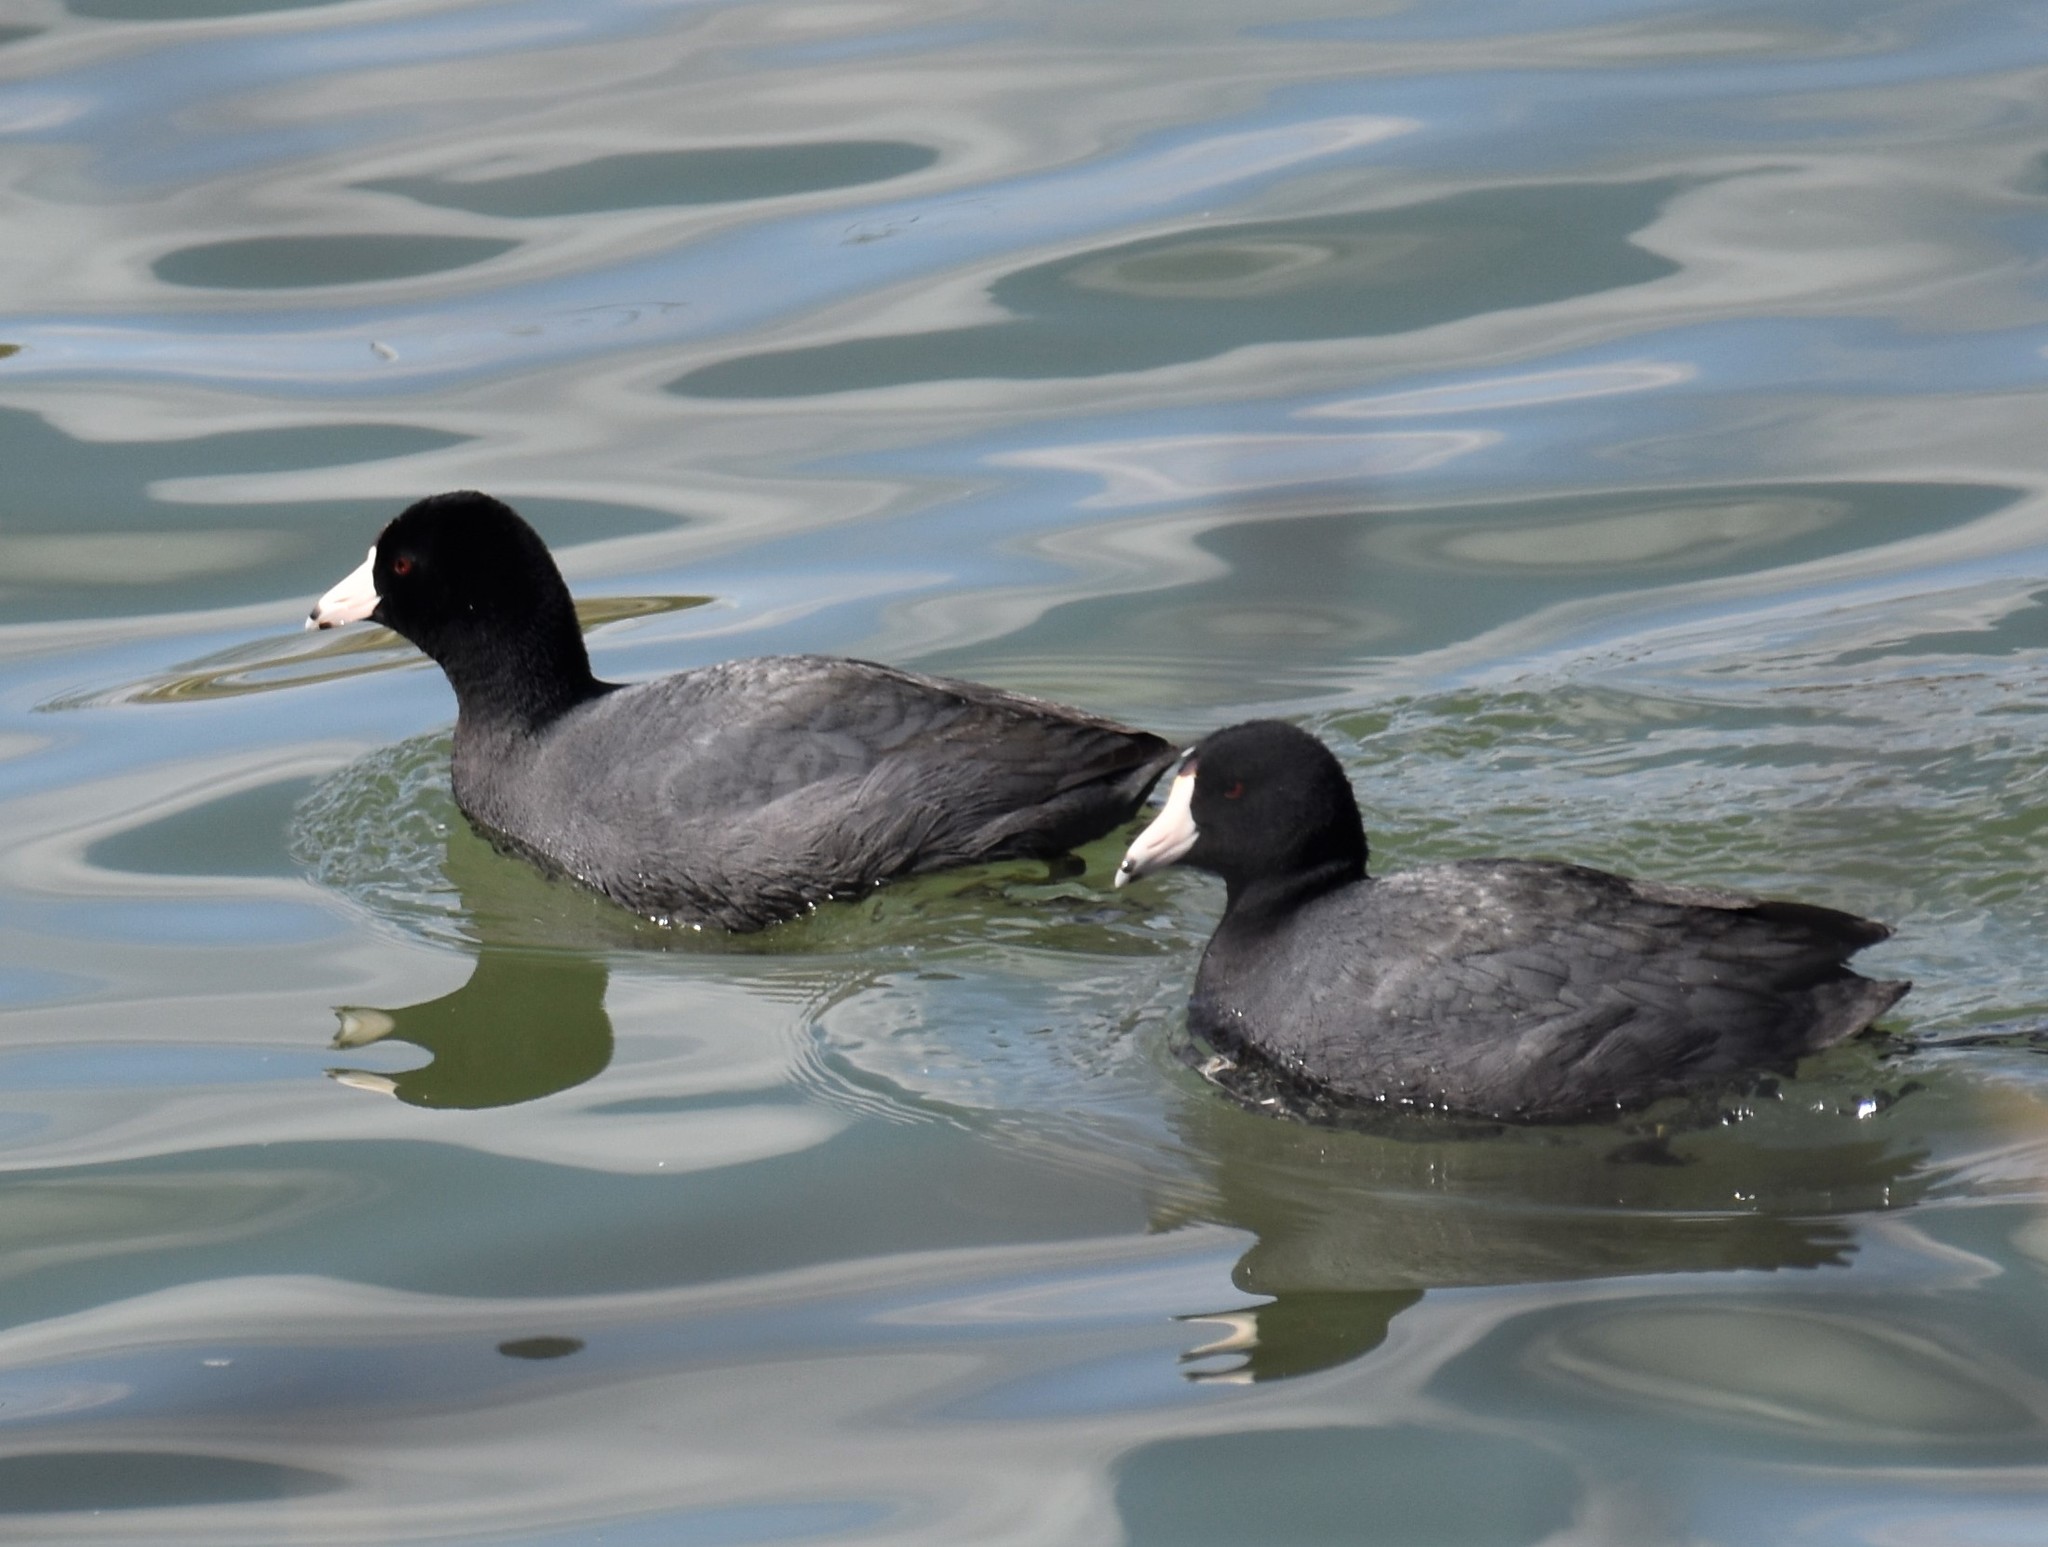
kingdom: Animalia
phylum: Chordata
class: Aves
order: Gruiformes
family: Rallidae
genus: Fulica
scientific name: Fulica americana
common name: American coot
